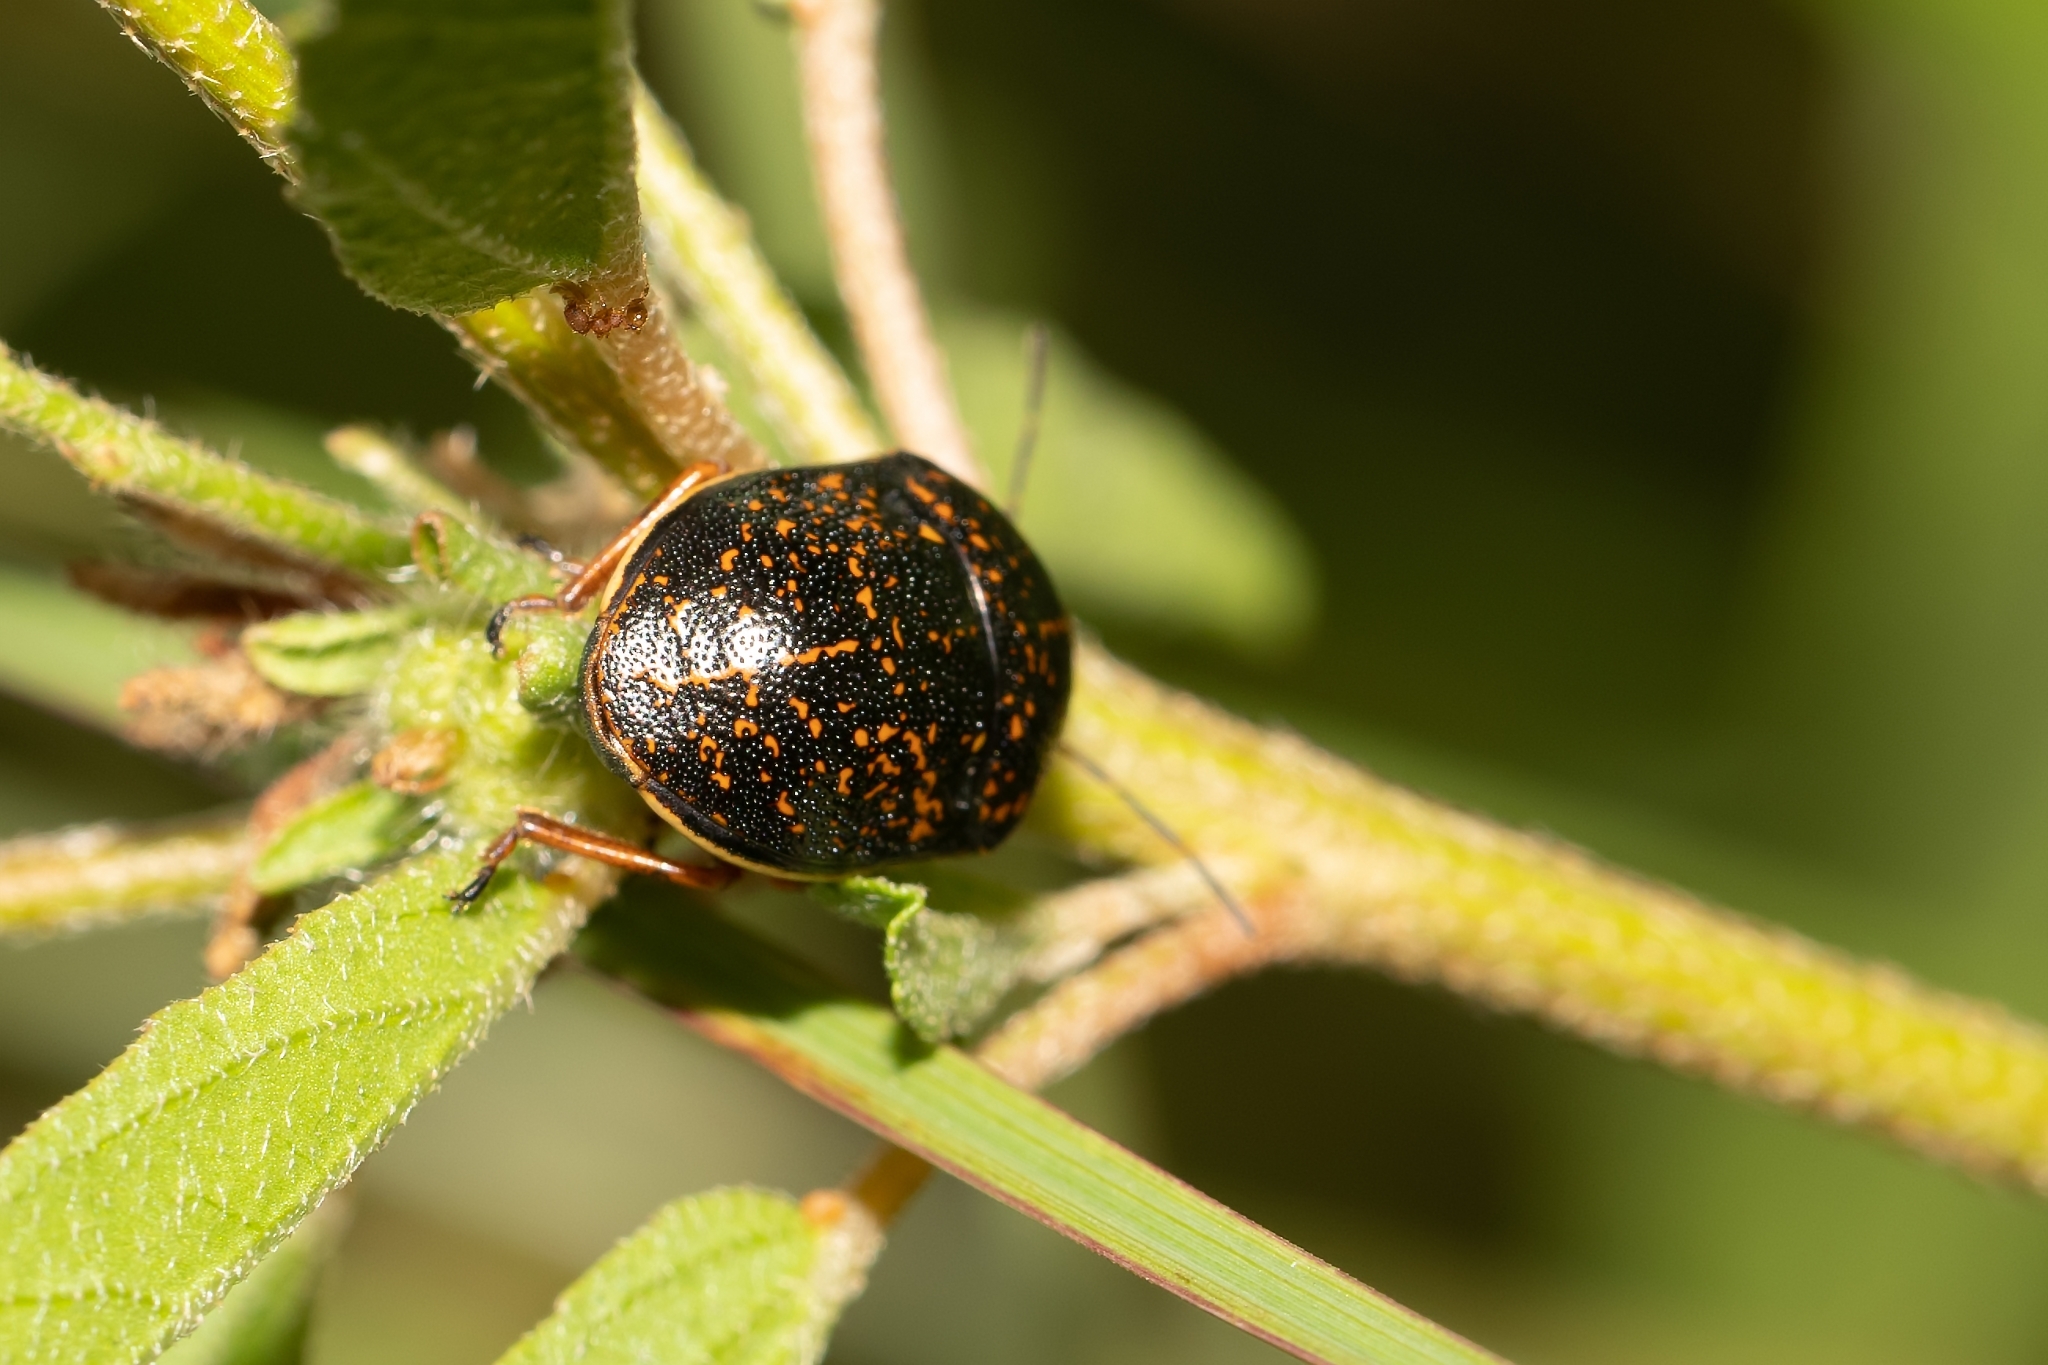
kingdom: Animalia
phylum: Arthropoda
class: Insecta
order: Hemiptera
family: Scutelleridae
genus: Orsilochides
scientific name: Orsilochides guttata
